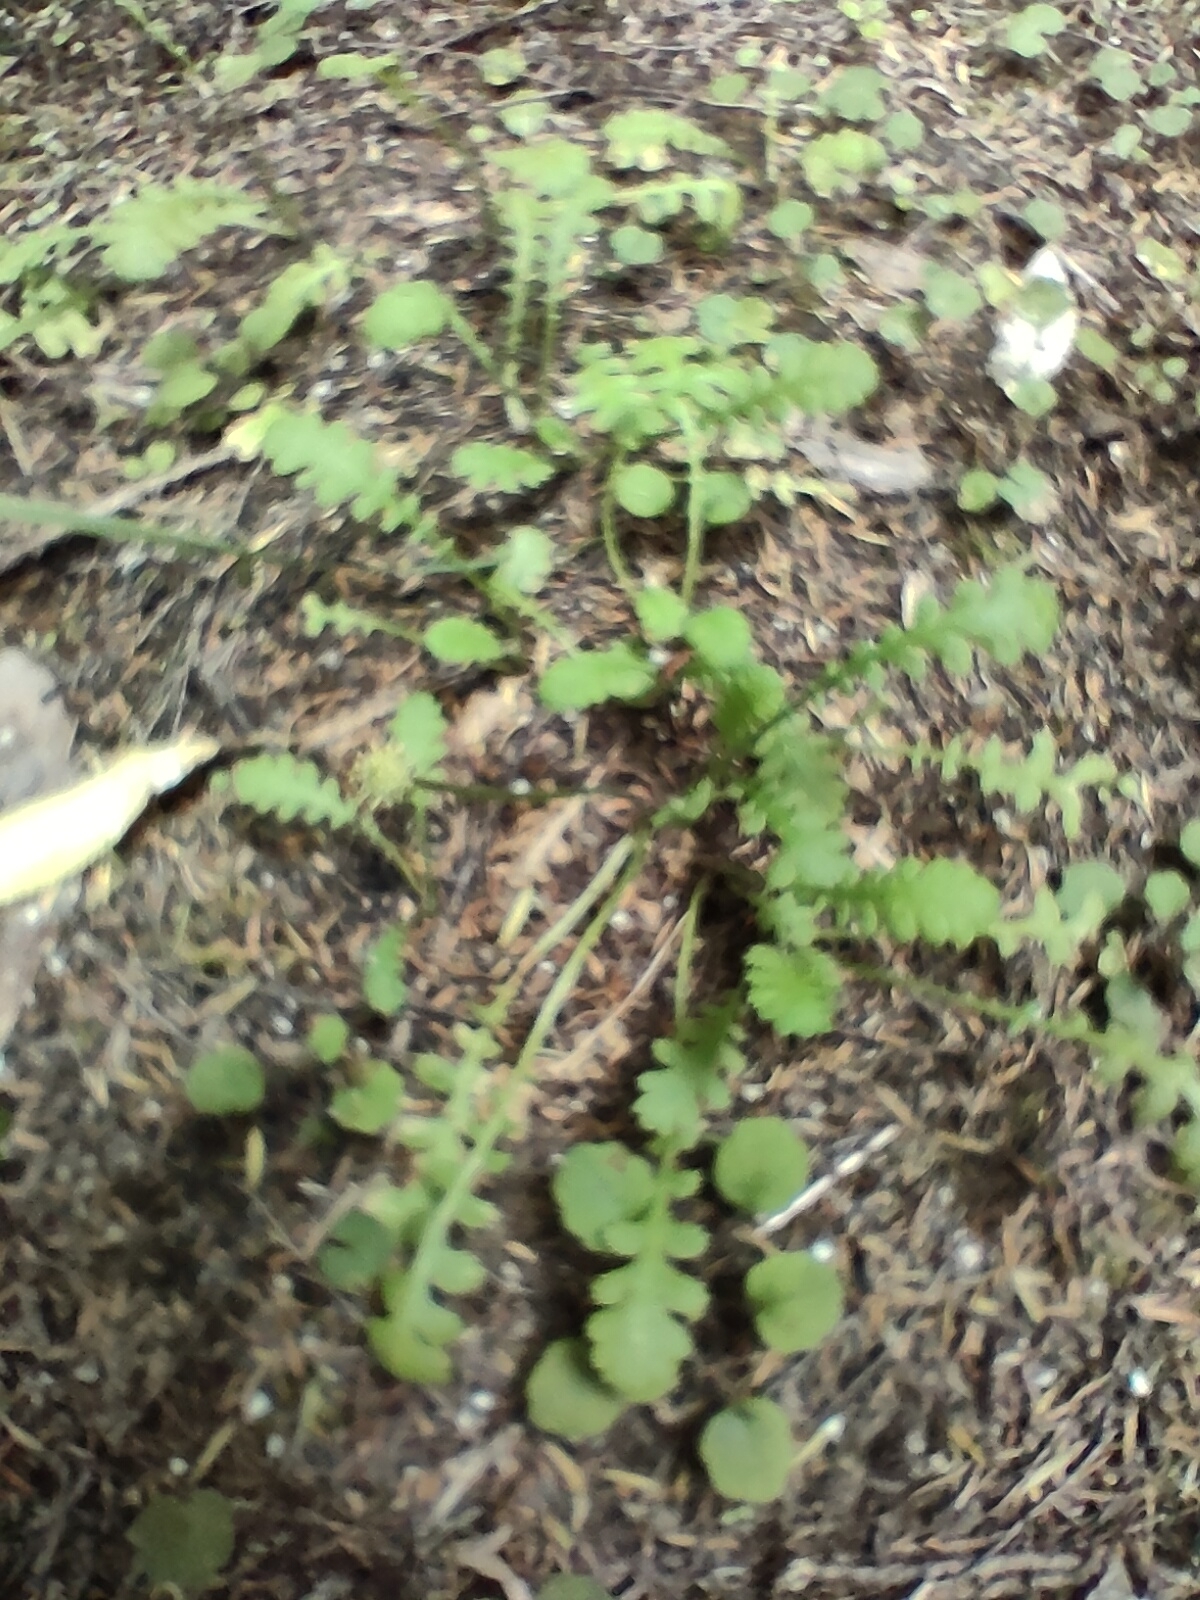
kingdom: Plantae
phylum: Tracheophyta
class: Magnoliopsida
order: Asterales
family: Asteraceae
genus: Leptinella
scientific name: Leptinella dioica
